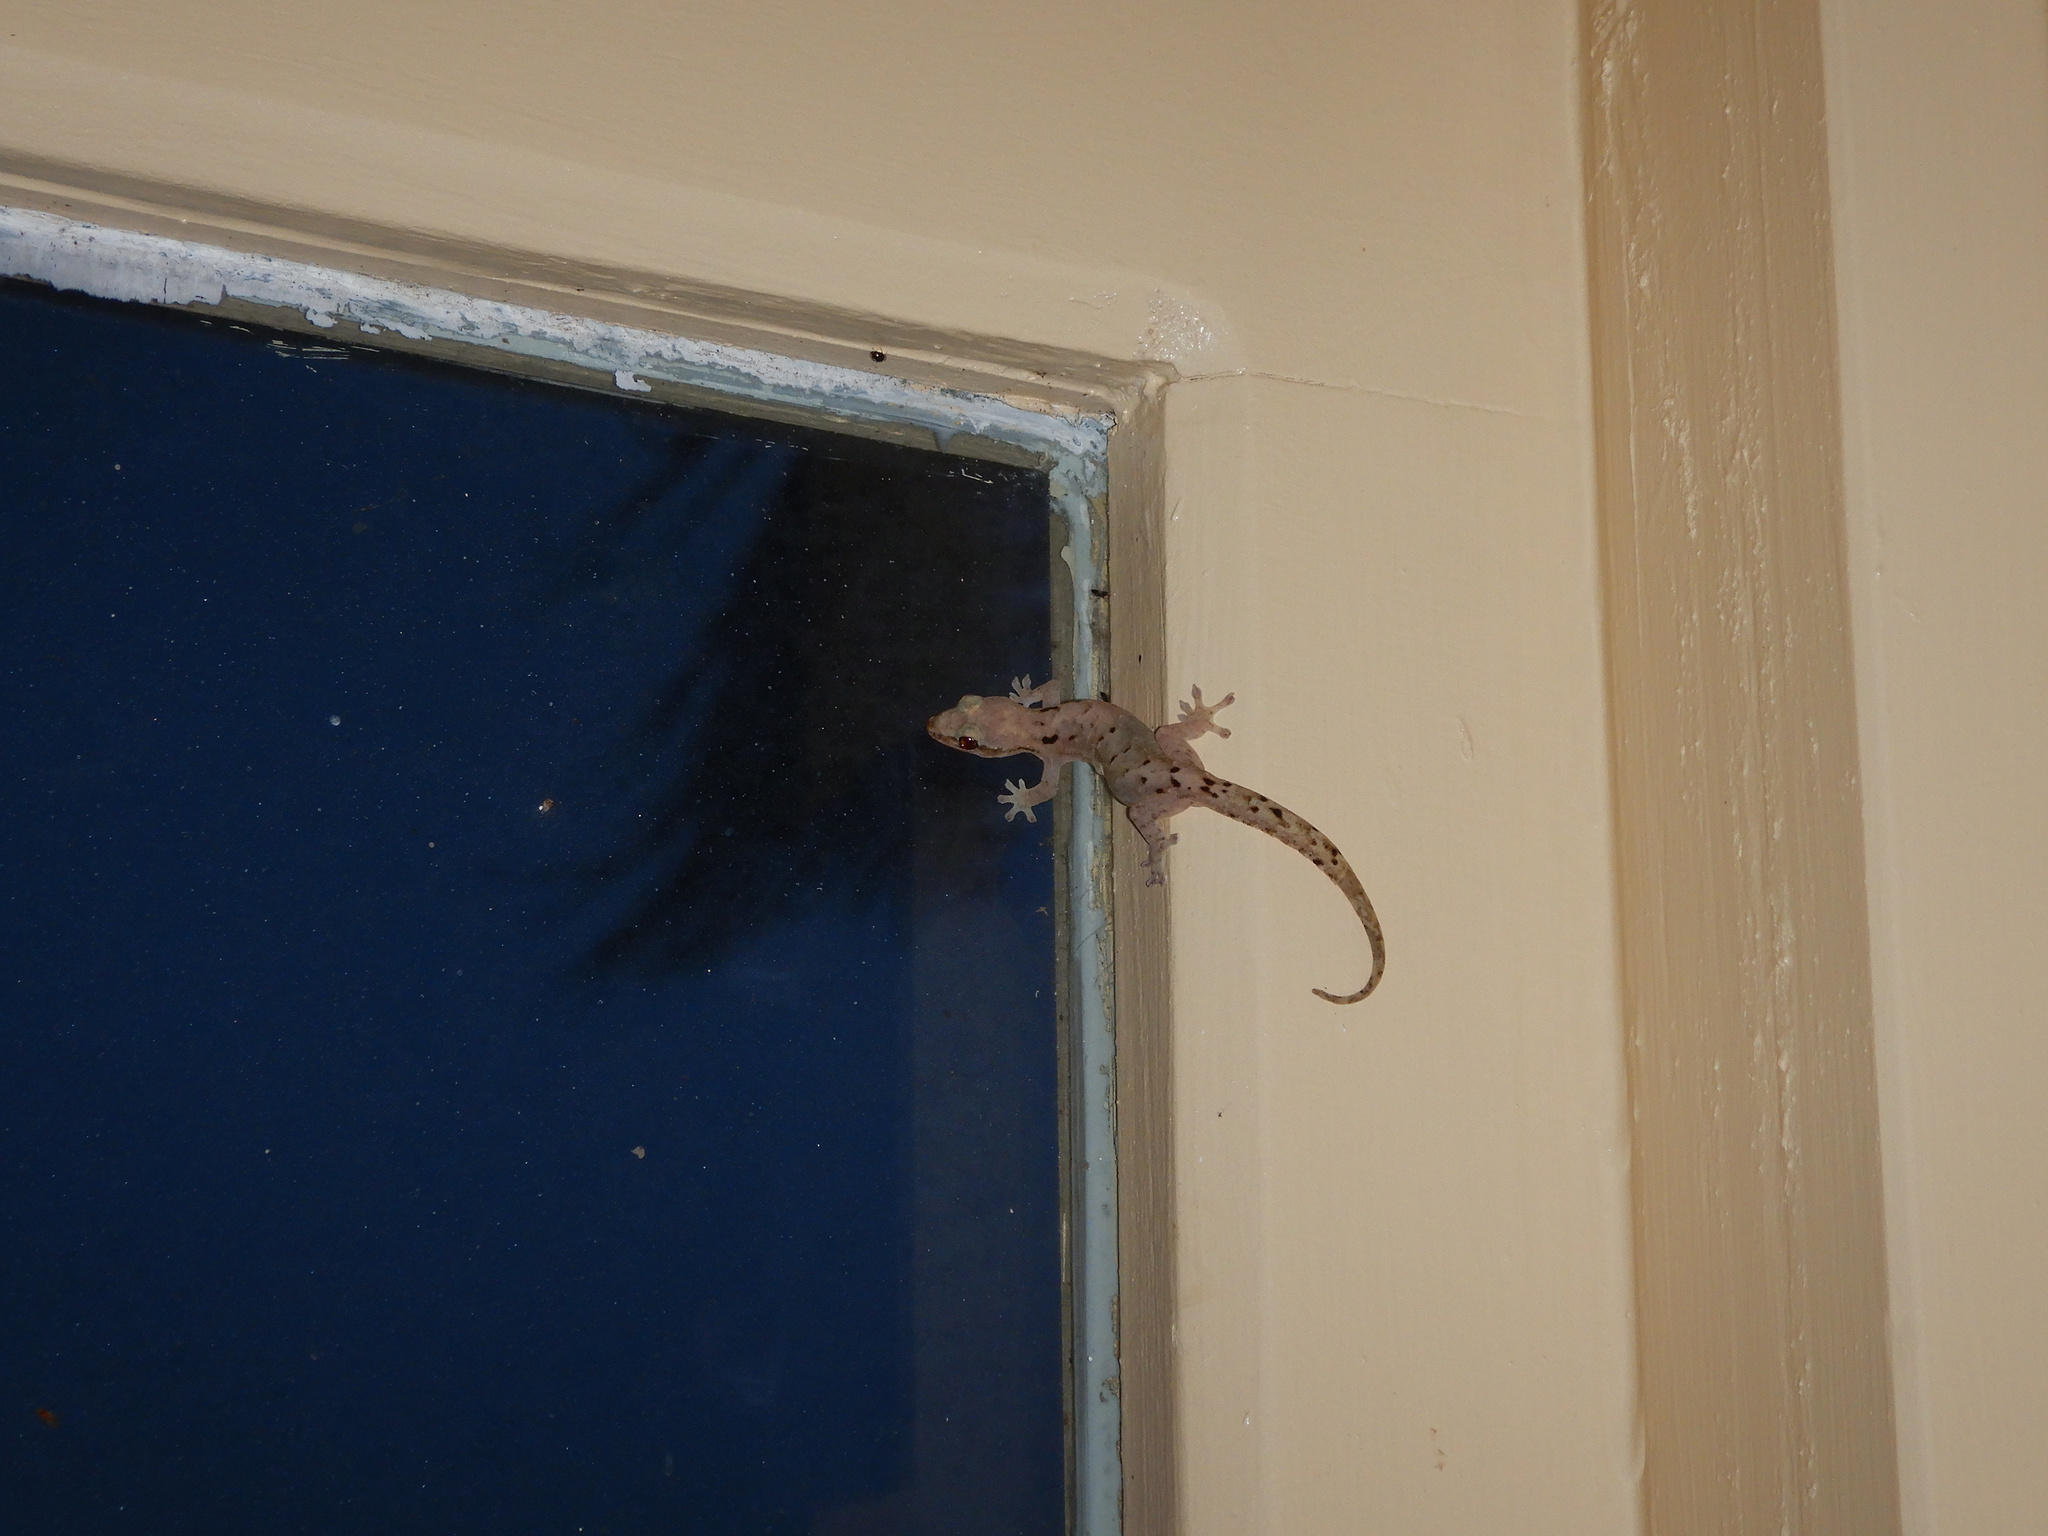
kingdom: Animalia
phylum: Chordata
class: Squamata
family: Gekkonidae
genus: Lepidodactylus
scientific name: Lepidodactylus lugubris
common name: Mourning gecko
